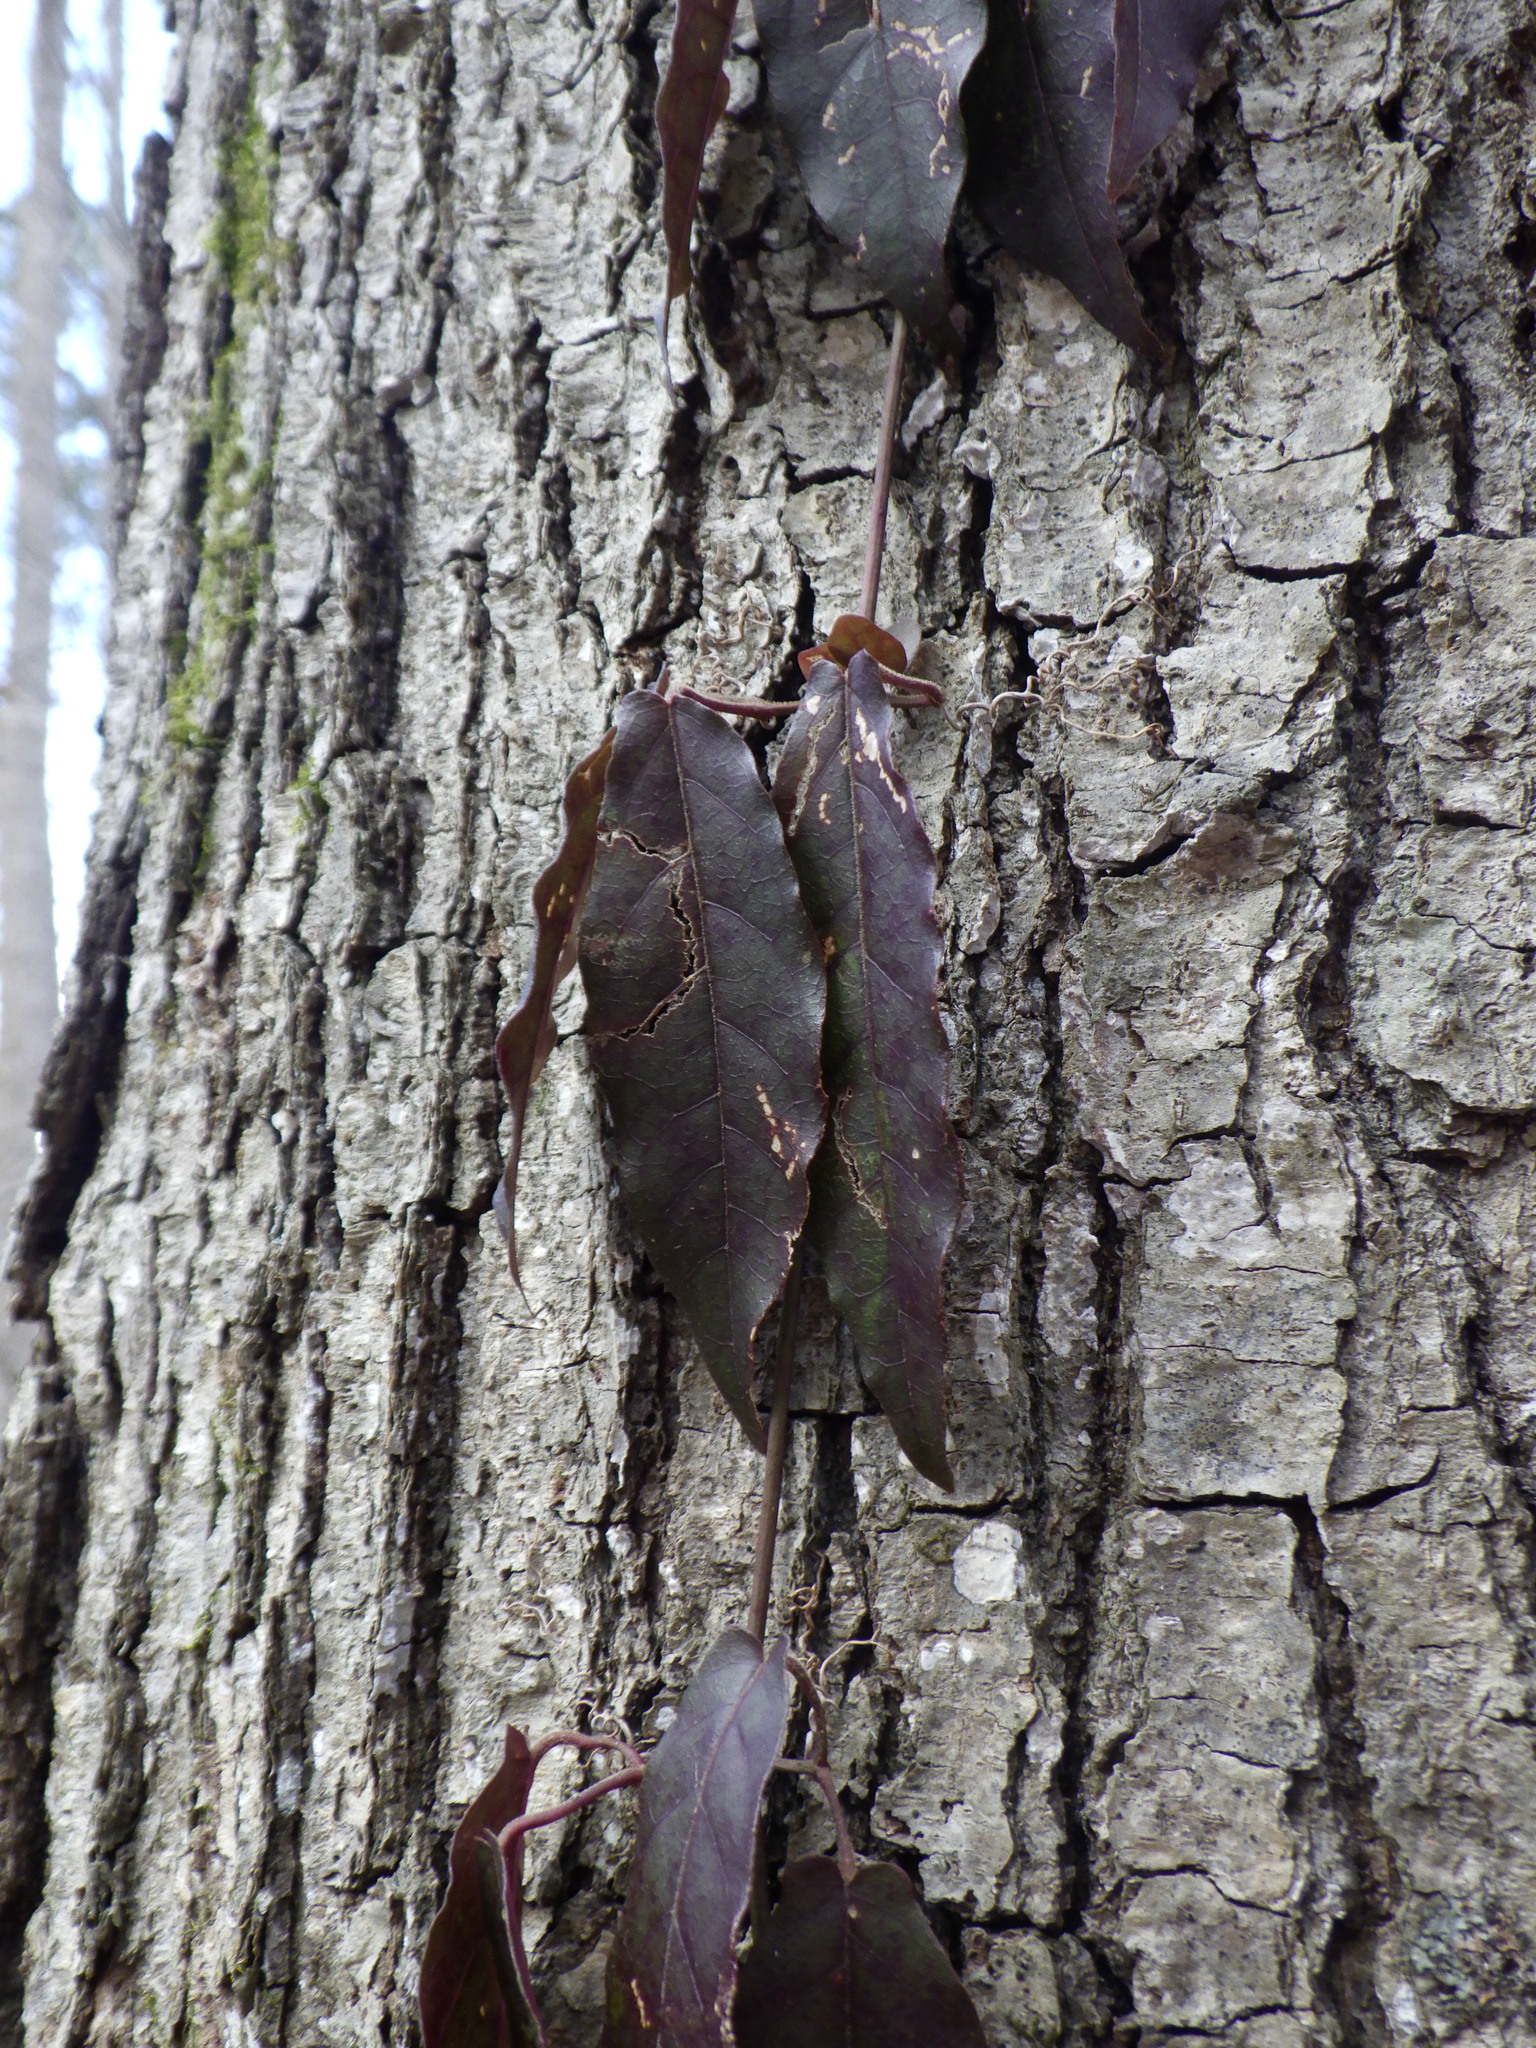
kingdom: Plantae
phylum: Tracheophyta
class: Magnoliopsida
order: Lamiales
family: Bignoniaceae
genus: Bignonia
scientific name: Bignonia capreolata
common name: Crossvine
